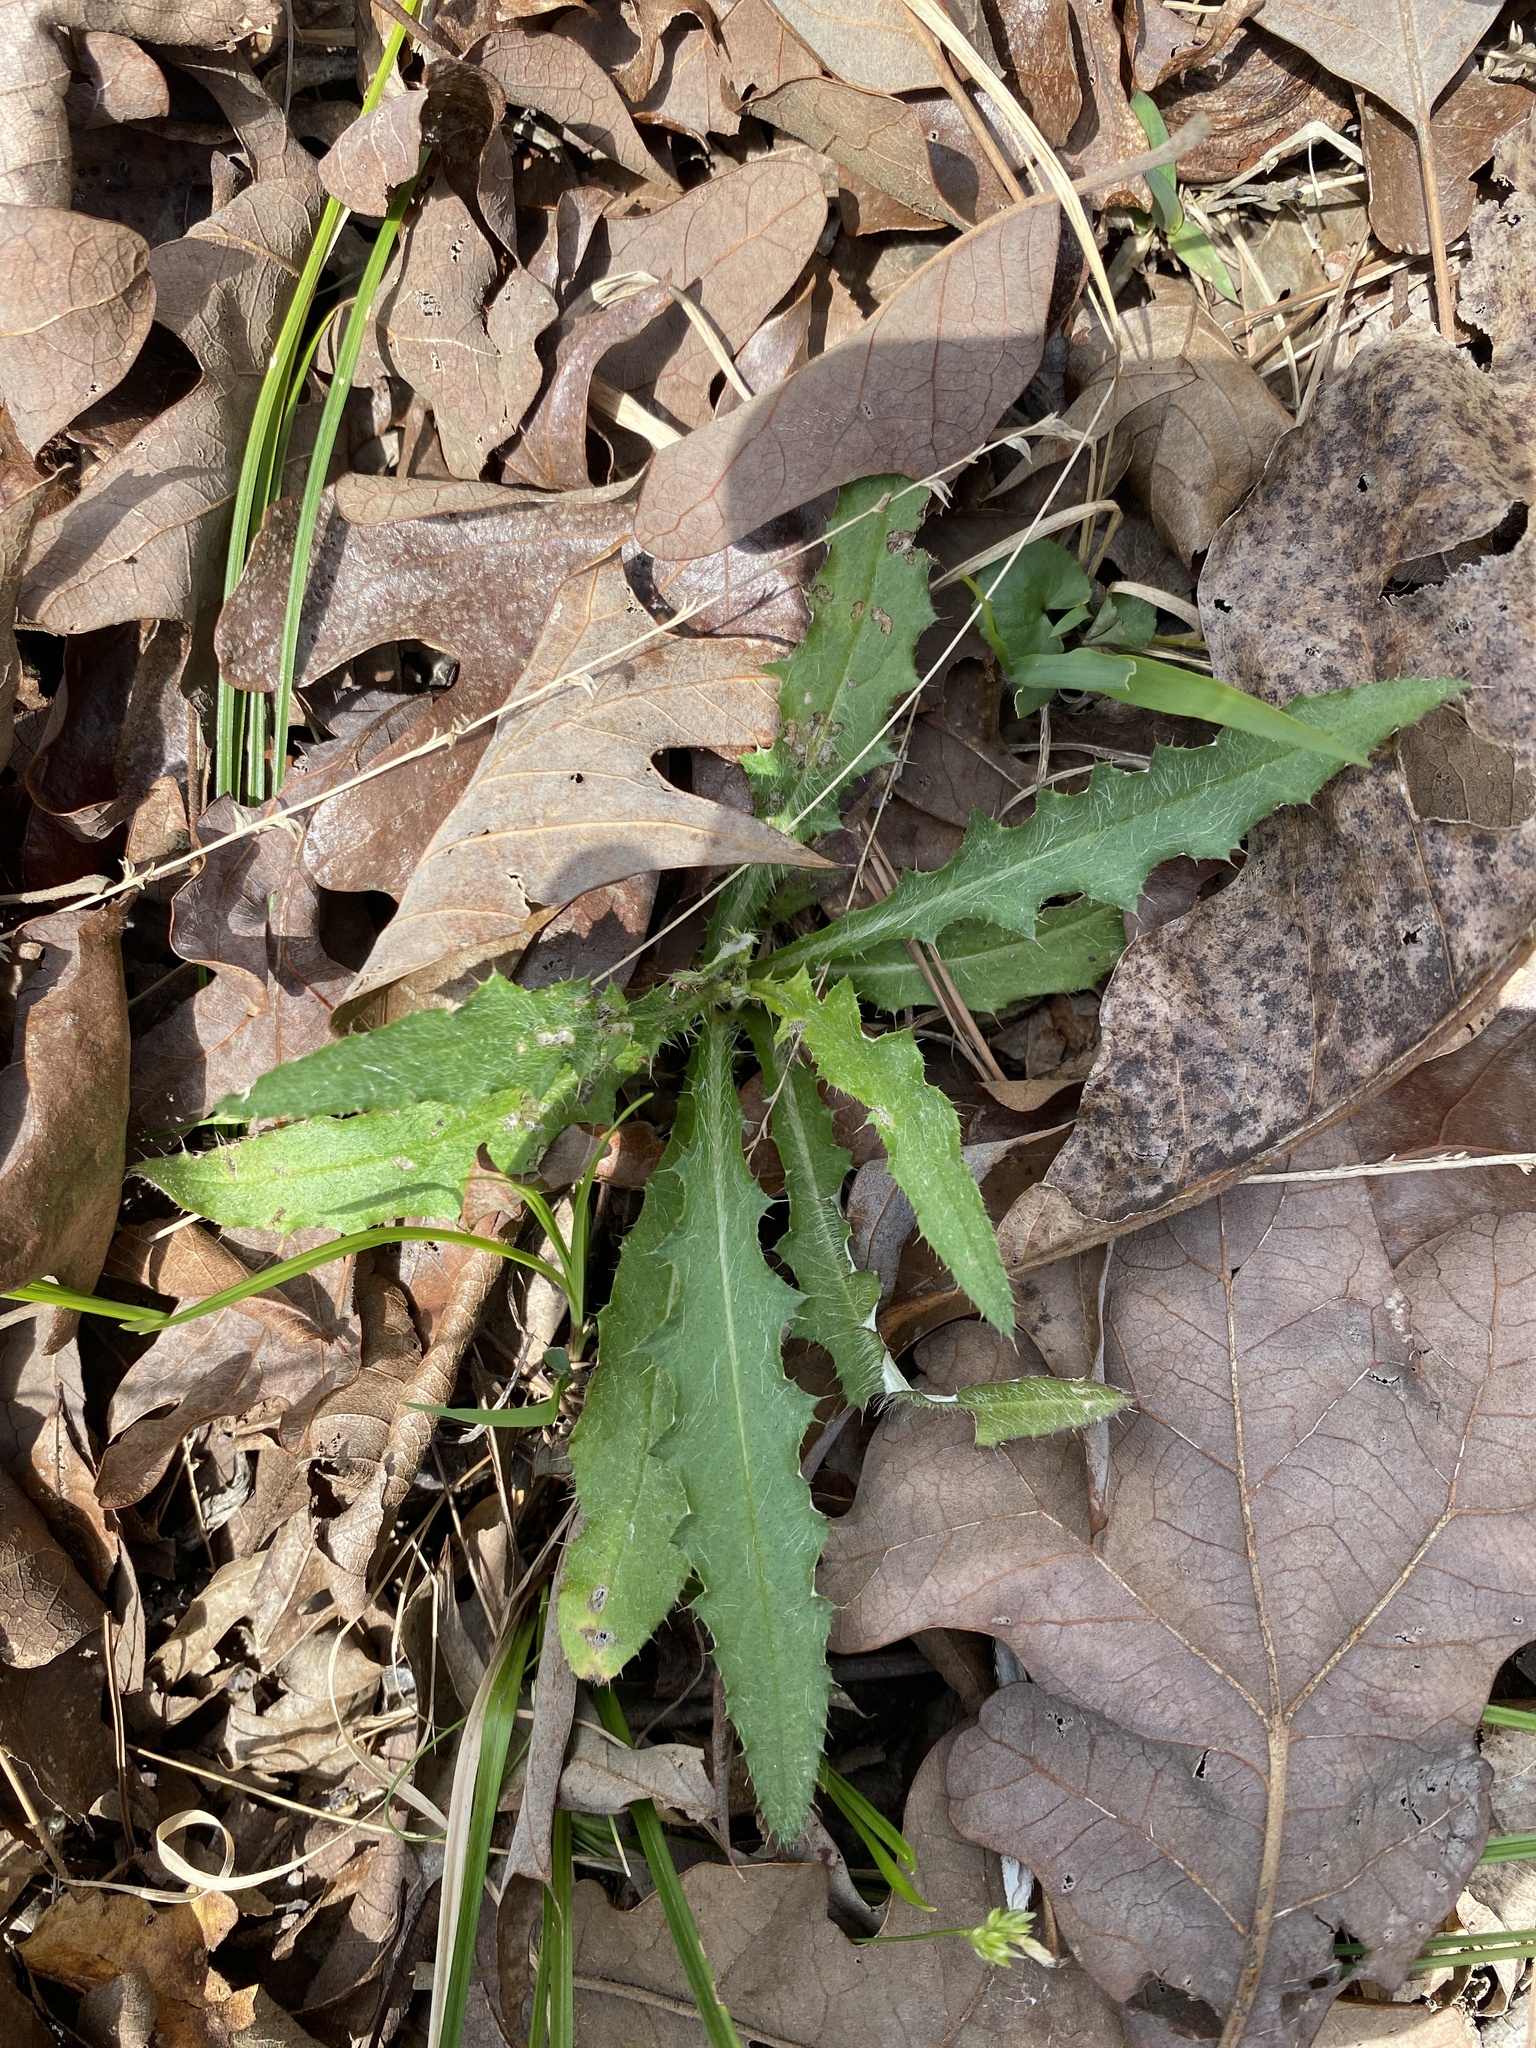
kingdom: Plantae
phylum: Tracheophyta
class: Magnoliopsida
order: Asterales
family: Asteraceae
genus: Cirsium
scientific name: Cirsium carolinianum
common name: Carolina thistle
